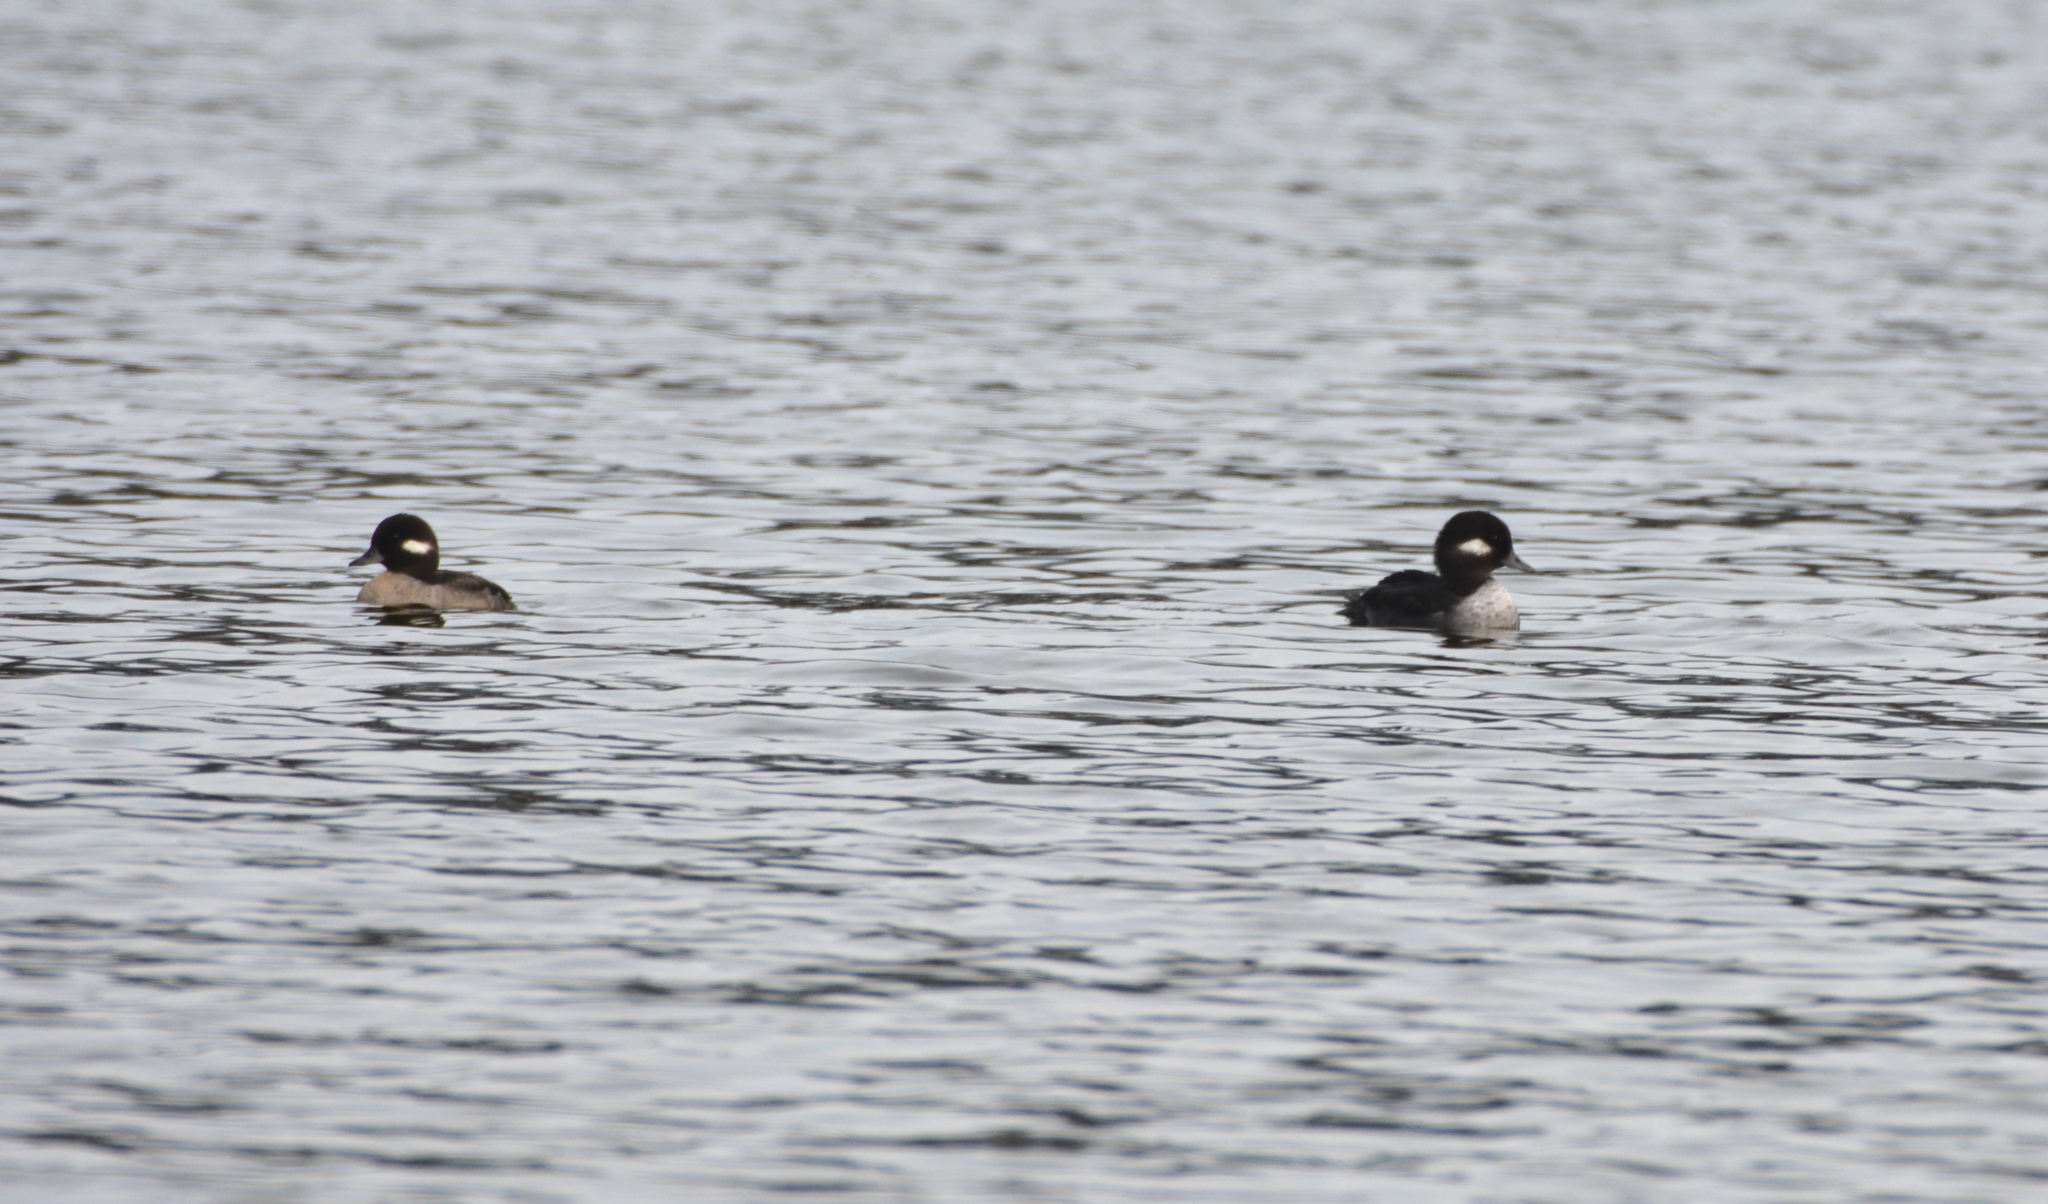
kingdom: Animalia
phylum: Chordata
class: Aves
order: Anseriformes
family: Anatidae
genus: Bucephala
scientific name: Bucephala albeola
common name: Bufflehead
